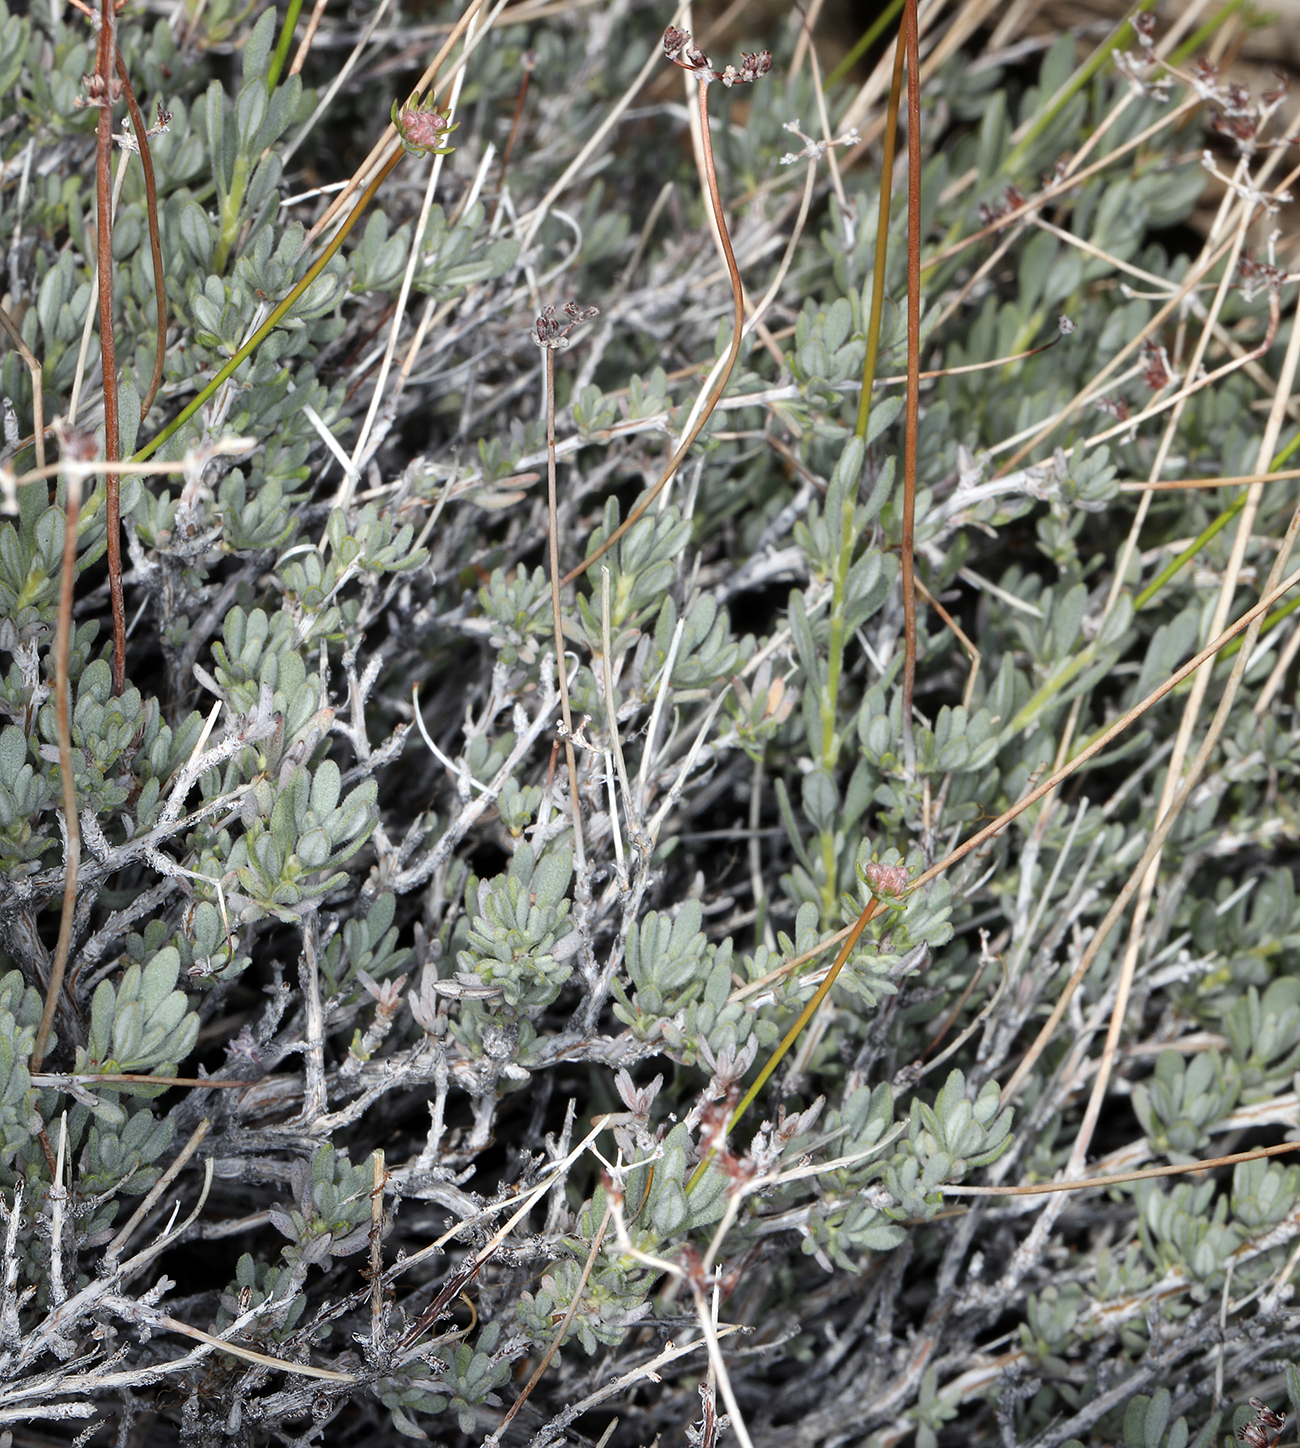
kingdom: Plantae
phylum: Tracheophyta
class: Magnoliopsida
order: Caryophyllales
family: Polygonaceae
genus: Eriogonum
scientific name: Eriogonum fasciculatum
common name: California wild buckwheat
